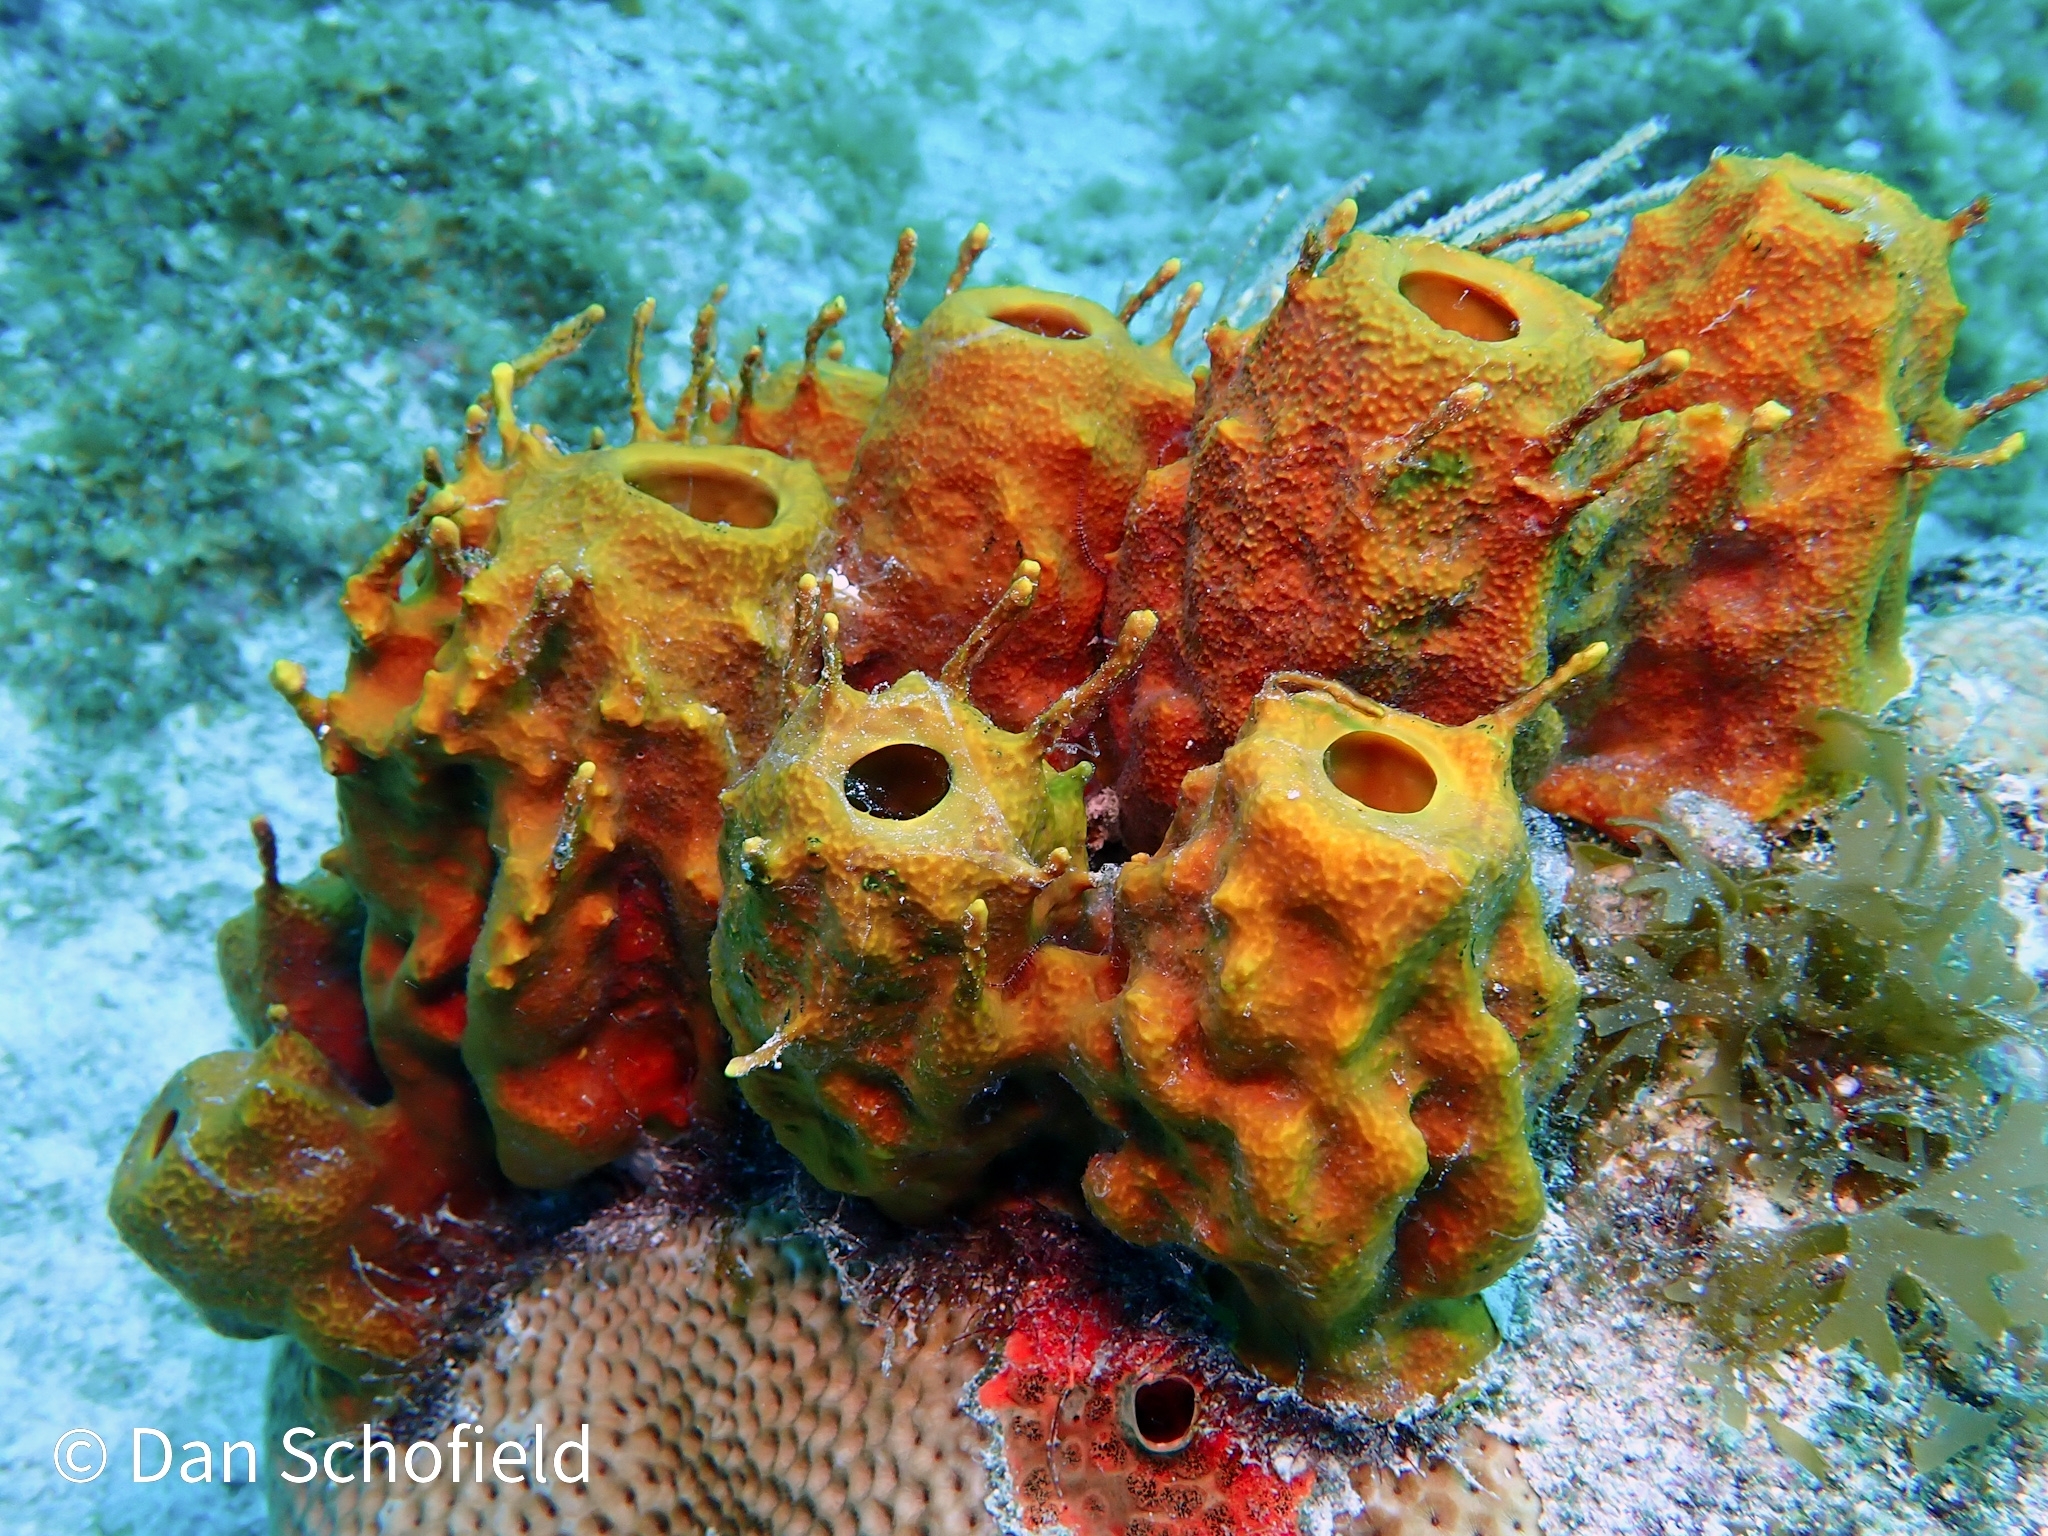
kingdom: Animalia
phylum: Porifera
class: Demospongiae
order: Verongiida
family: Aplysinidae
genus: Aplysina
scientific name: Aplysina insularis
